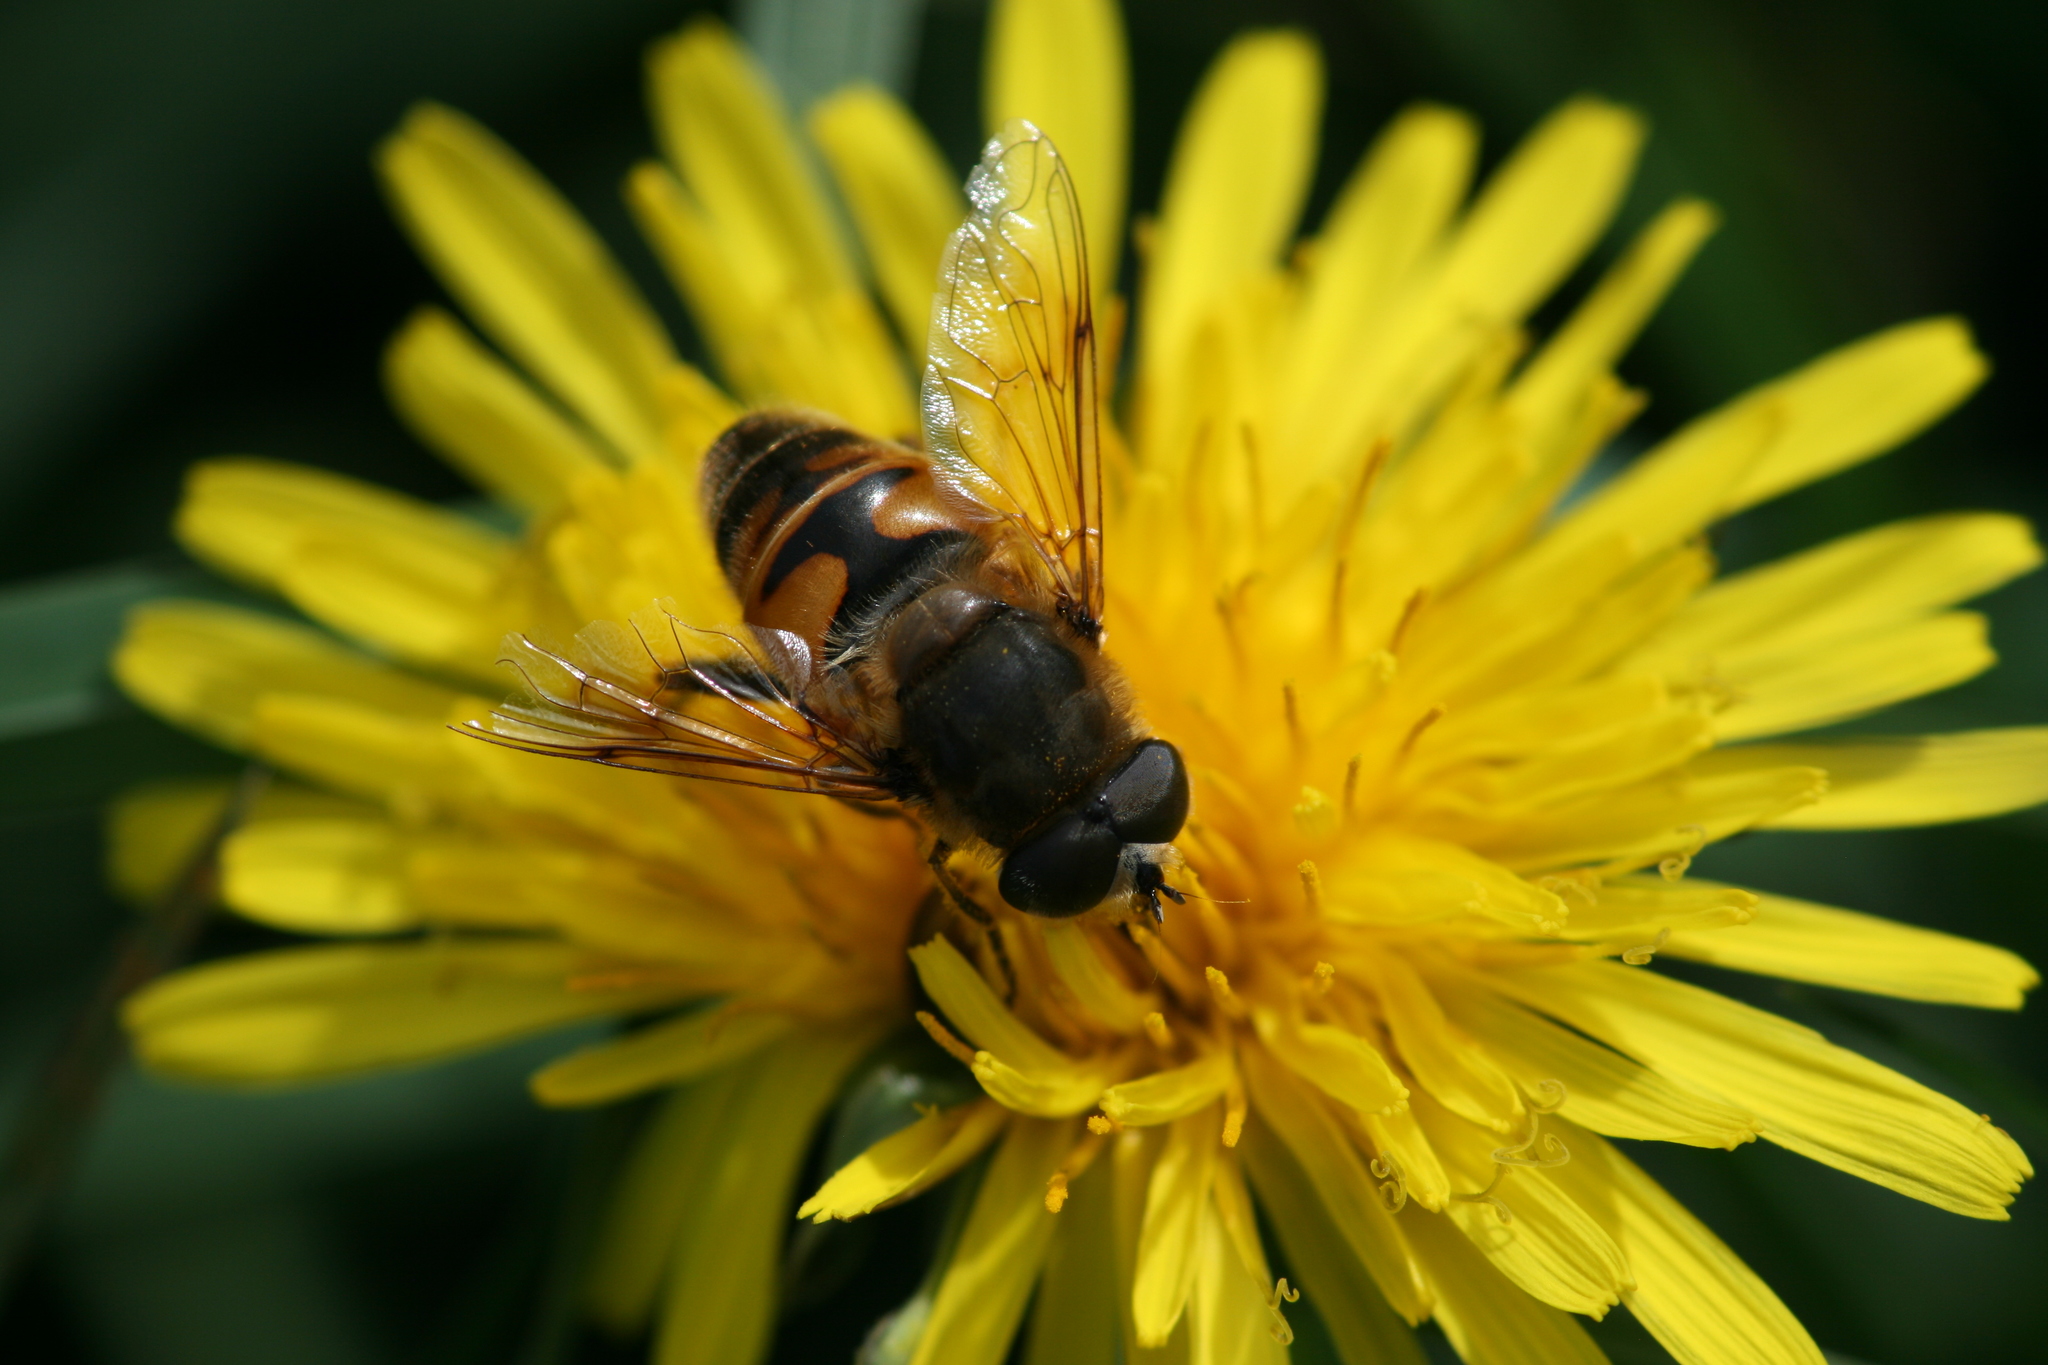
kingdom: Animalia
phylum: Arthropoda
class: Insecta
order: Diptera
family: Syrphidae
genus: Eristalis
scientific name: Eristalis tenax
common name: Drone fly
